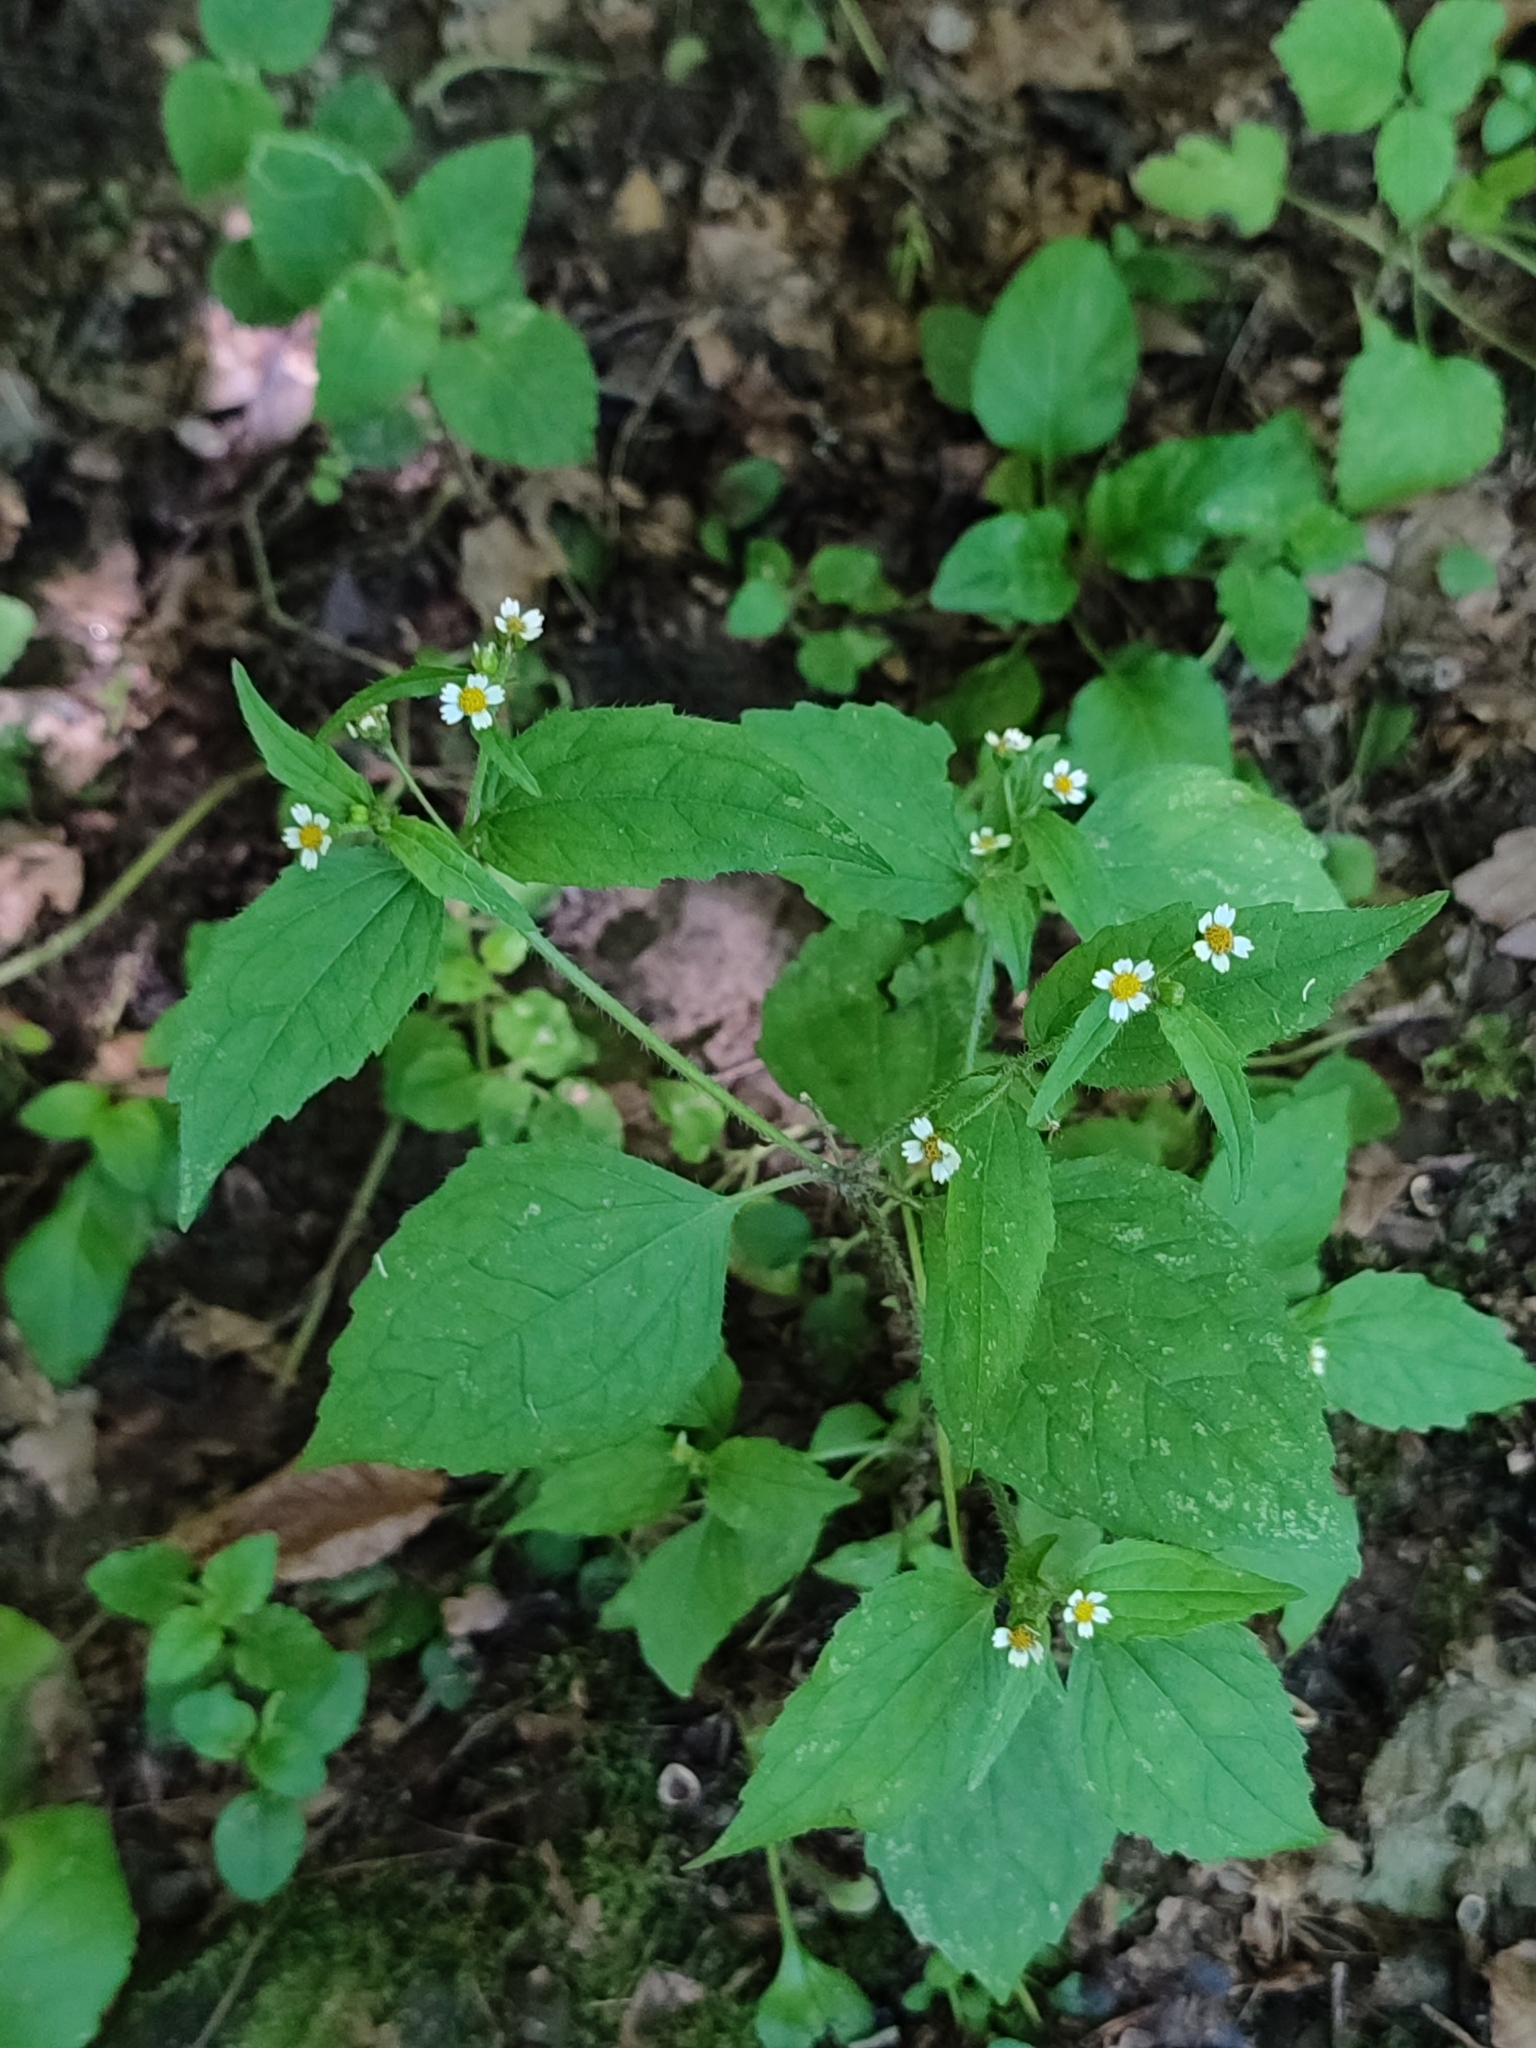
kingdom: Plantae
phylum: Tracheophyta
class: Magnoliopsida
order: Asterales
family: Asteraceae
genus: Galinsoga
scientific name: Galinsoga quadriradiata
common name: Shaggy soldier
